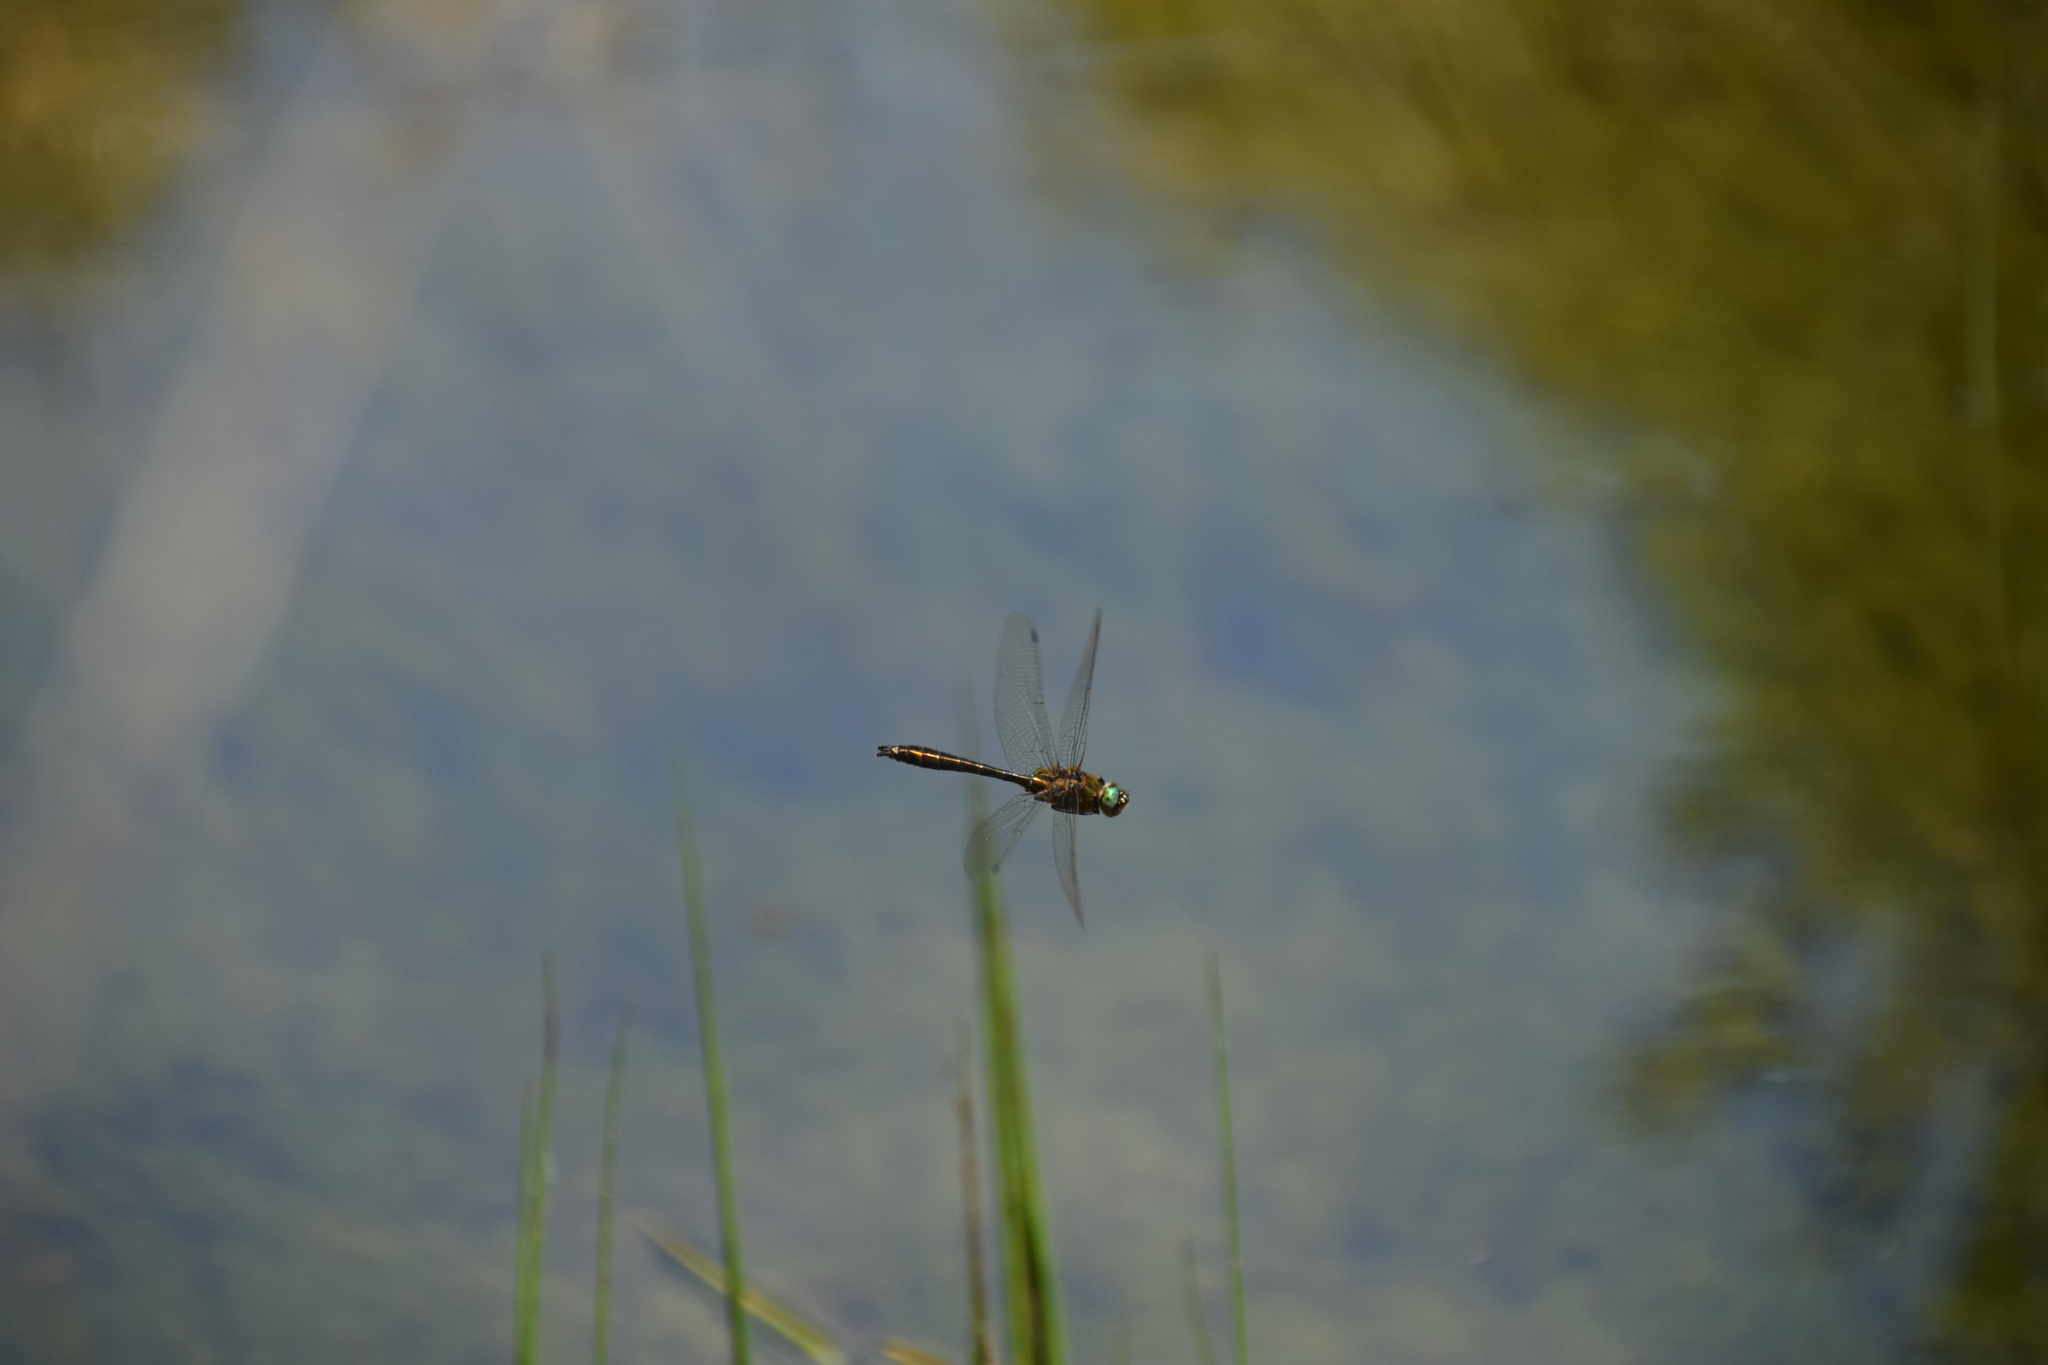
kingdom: Animalia
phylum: Arthropoda
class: Insecta
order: Odonata
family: Corduliidae
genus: Cordulia
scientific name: Cordulia aenea
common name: Downy emerald
